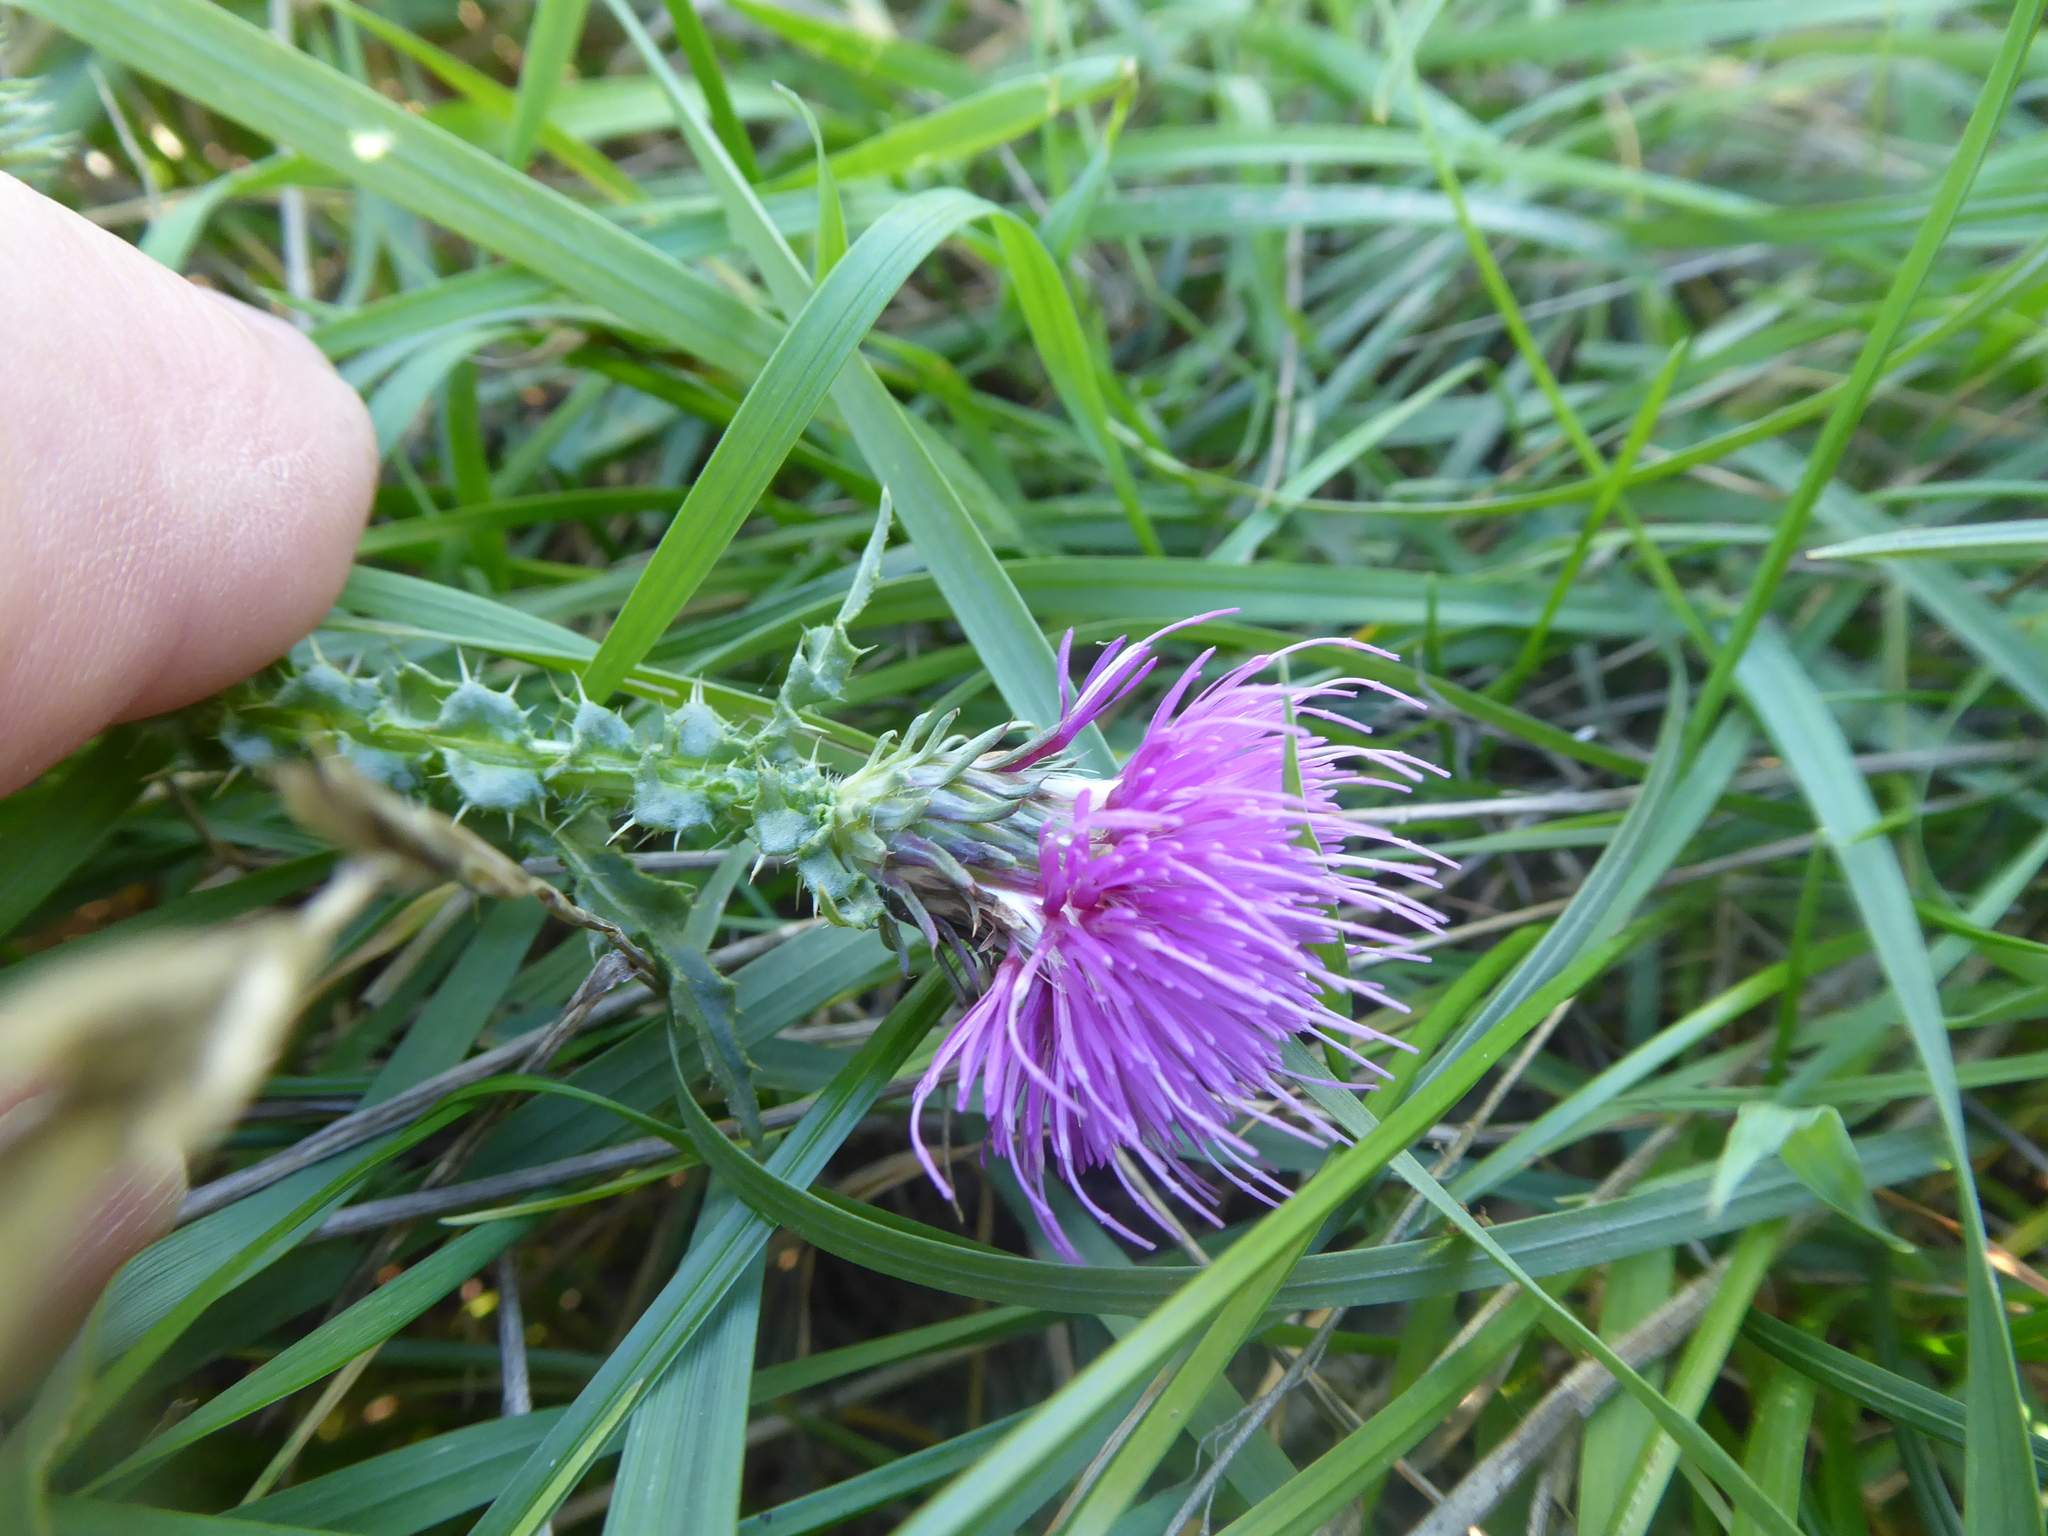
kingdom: Plantae
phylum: Tracheophyta
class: Magnoliopsida
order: Asterales
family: Asteraceae
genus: Carduus
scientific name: Carduus acanthoides
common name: Plumeless thistle
